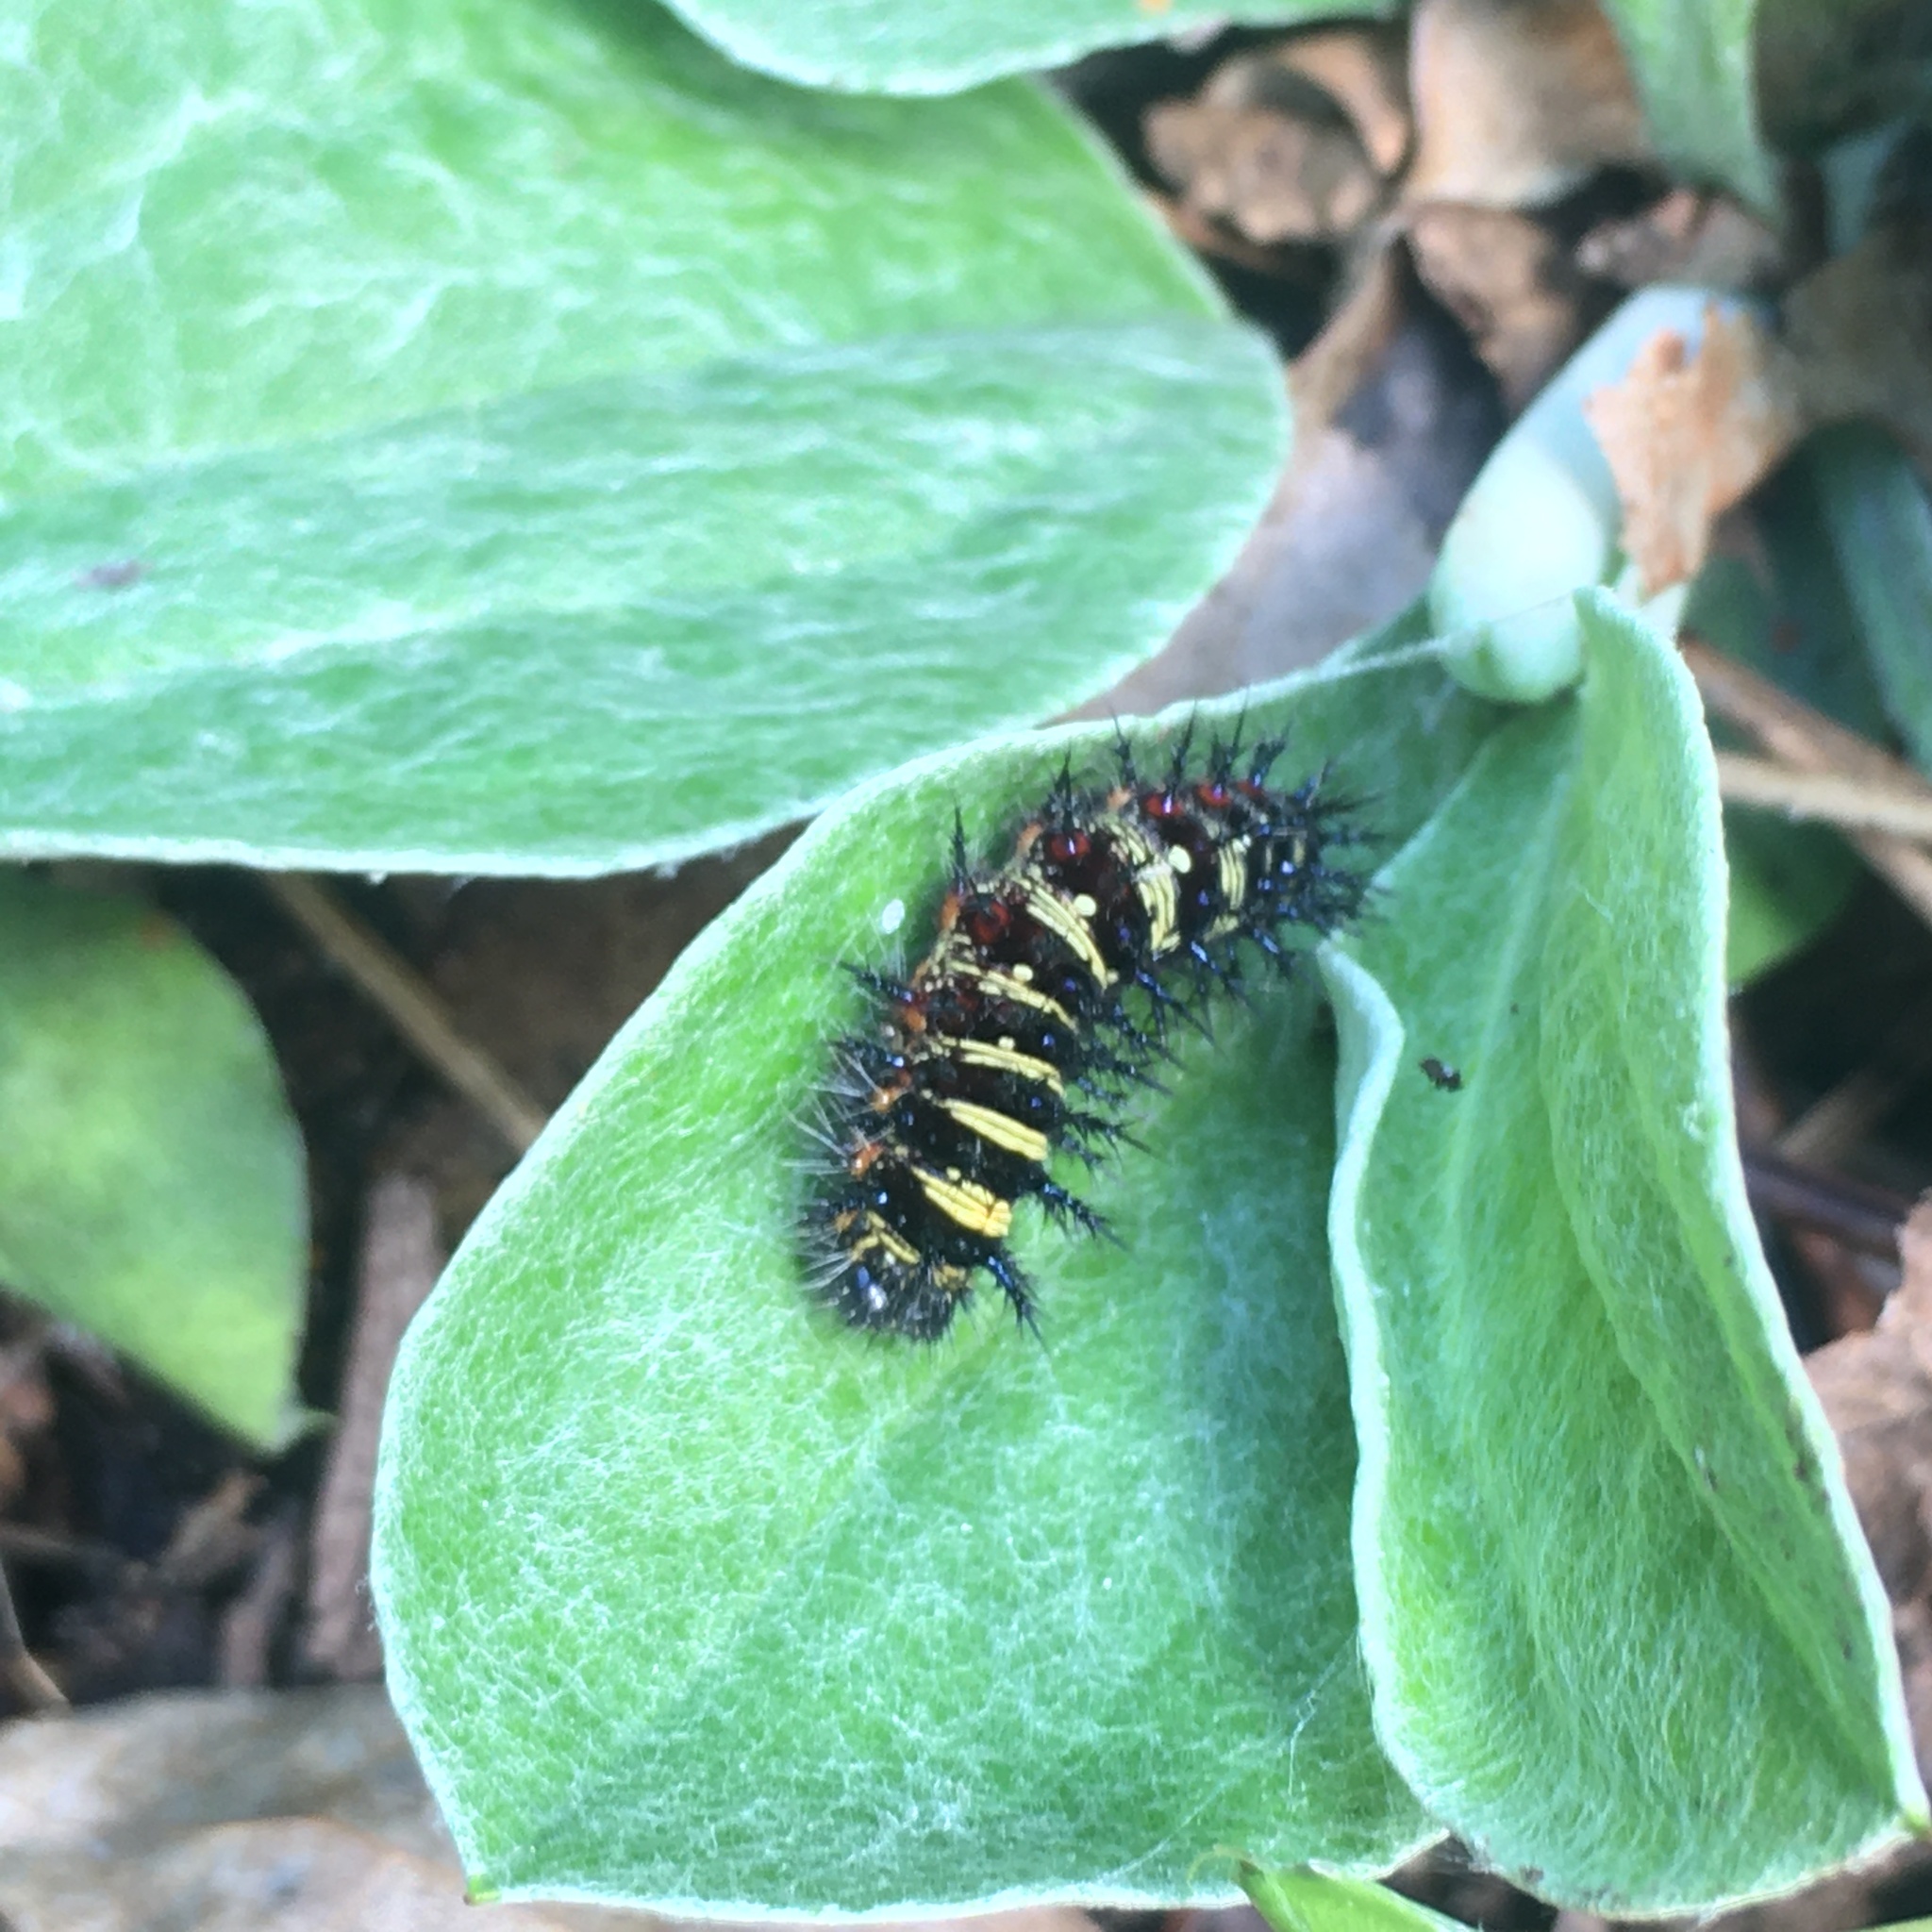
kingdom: Animalia
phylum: Arthropoda
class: Insecta
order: Lepidoptera
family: Nymphalidae
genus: Vanessa
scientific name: Vanessa virginiensis
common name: American lady
